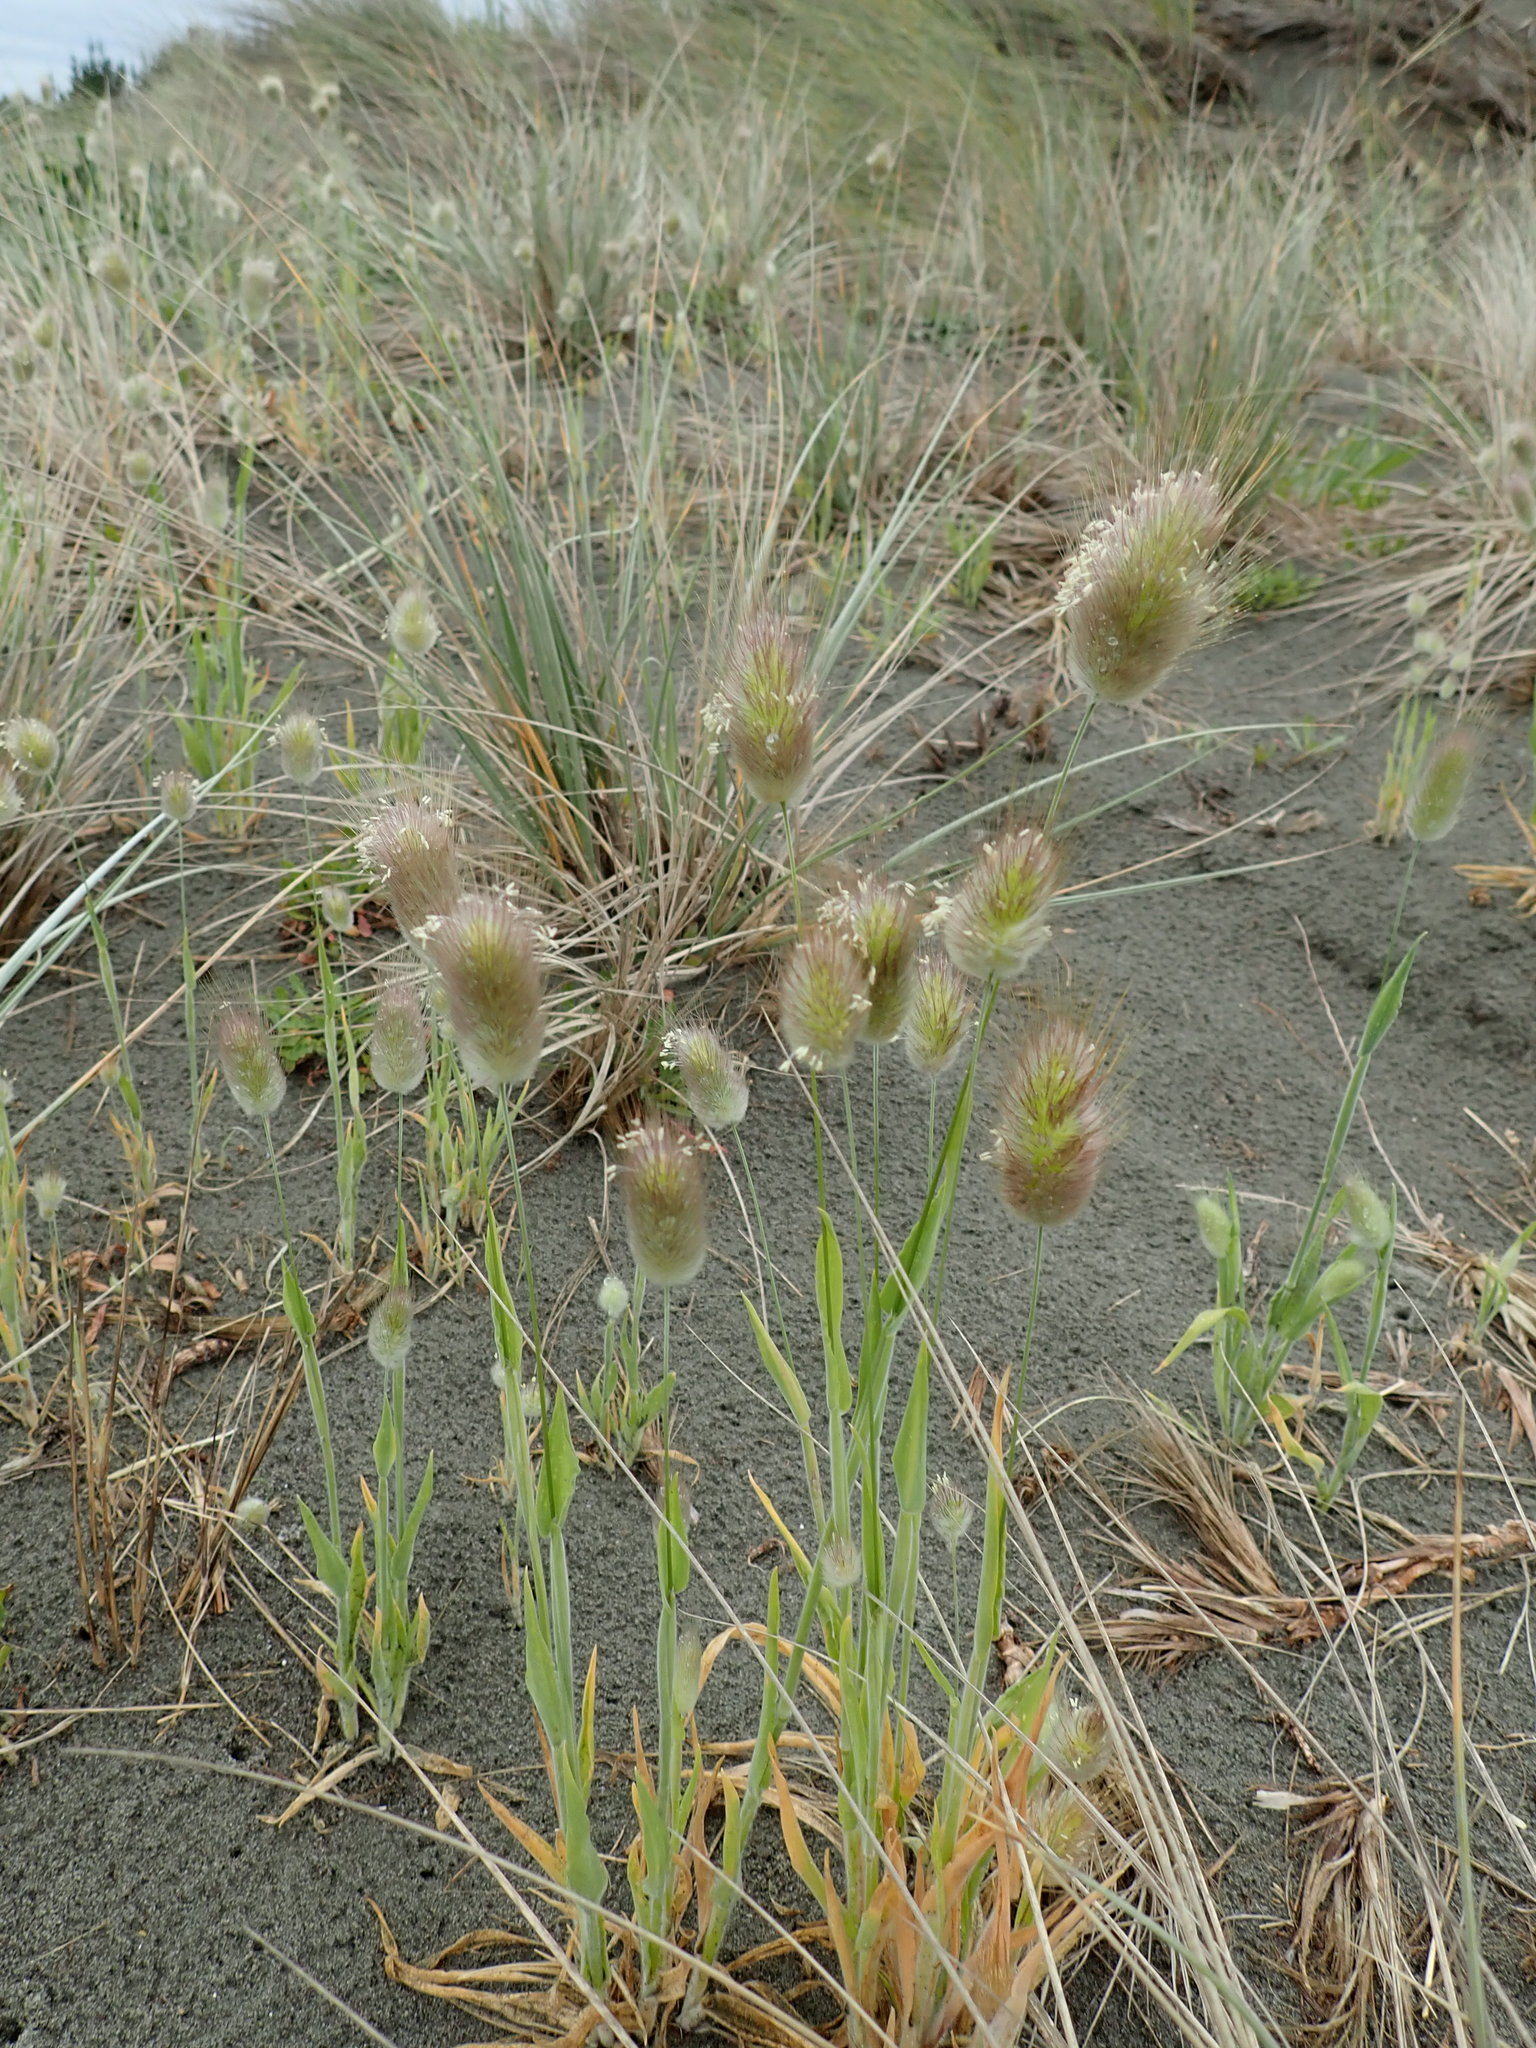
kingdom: Plantae
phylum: Tracheophyta
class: Liliopsida
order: Poales
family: Poaceae
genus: Lagurus
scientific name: Lagurus ovatus
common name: Hare's-tail
